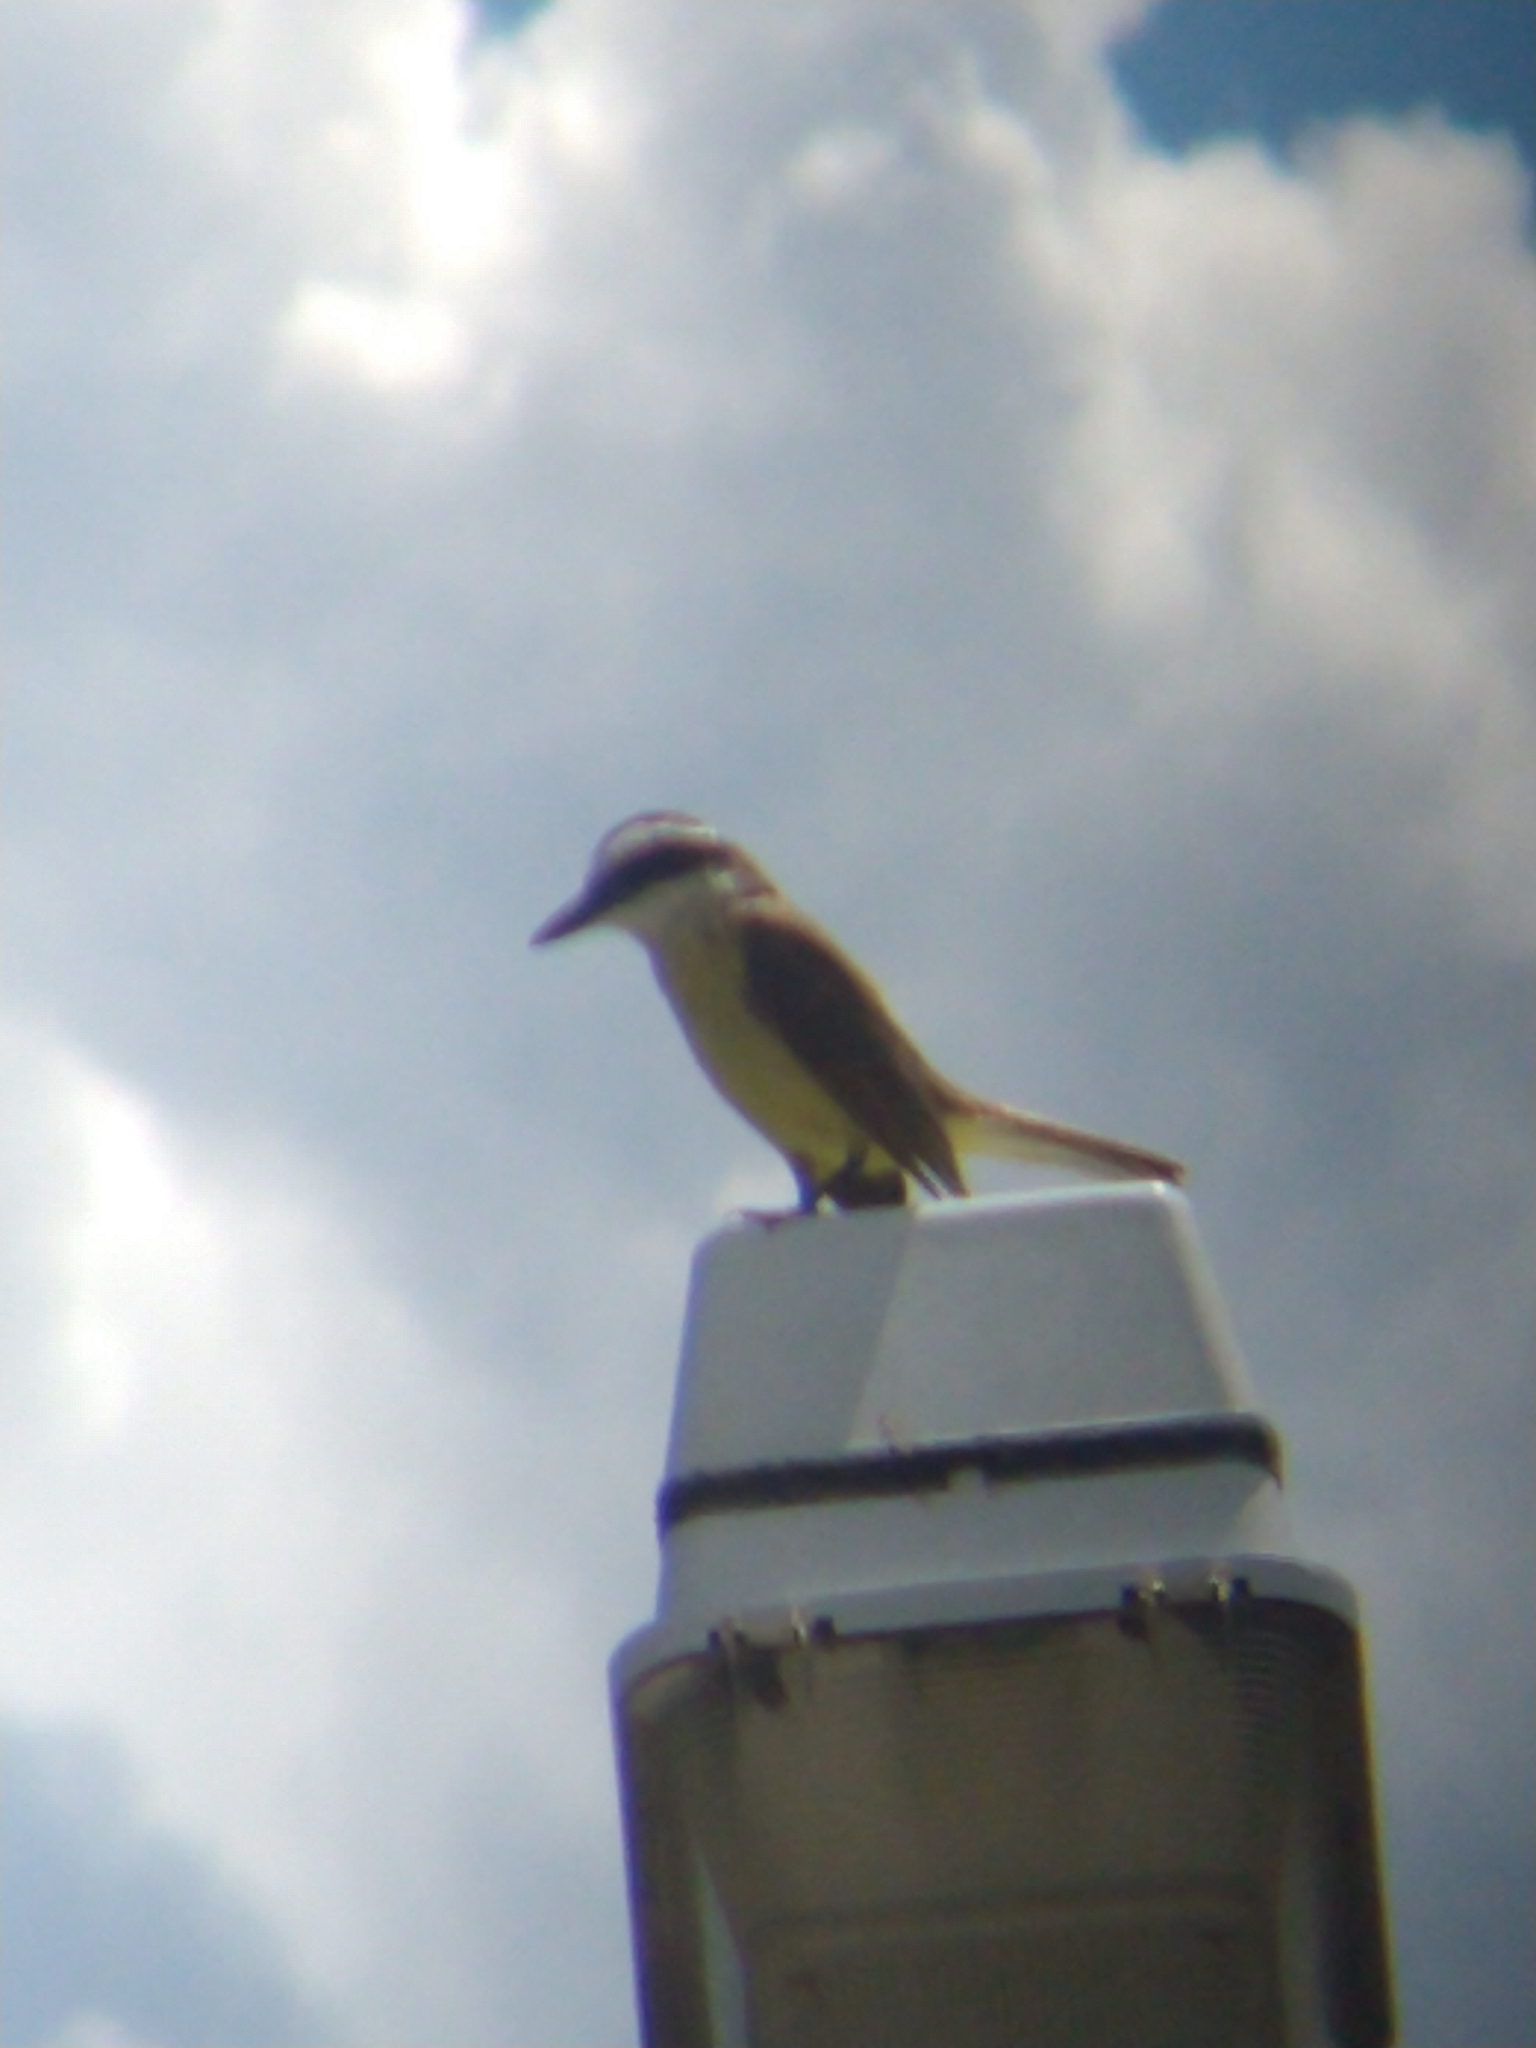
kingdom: Animalia
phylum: Chordata
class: Aves
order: Passeriformes
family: Tyrannidae
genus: Pitangus
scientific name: Pitangus sulphuratus
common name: Great kiskadee
